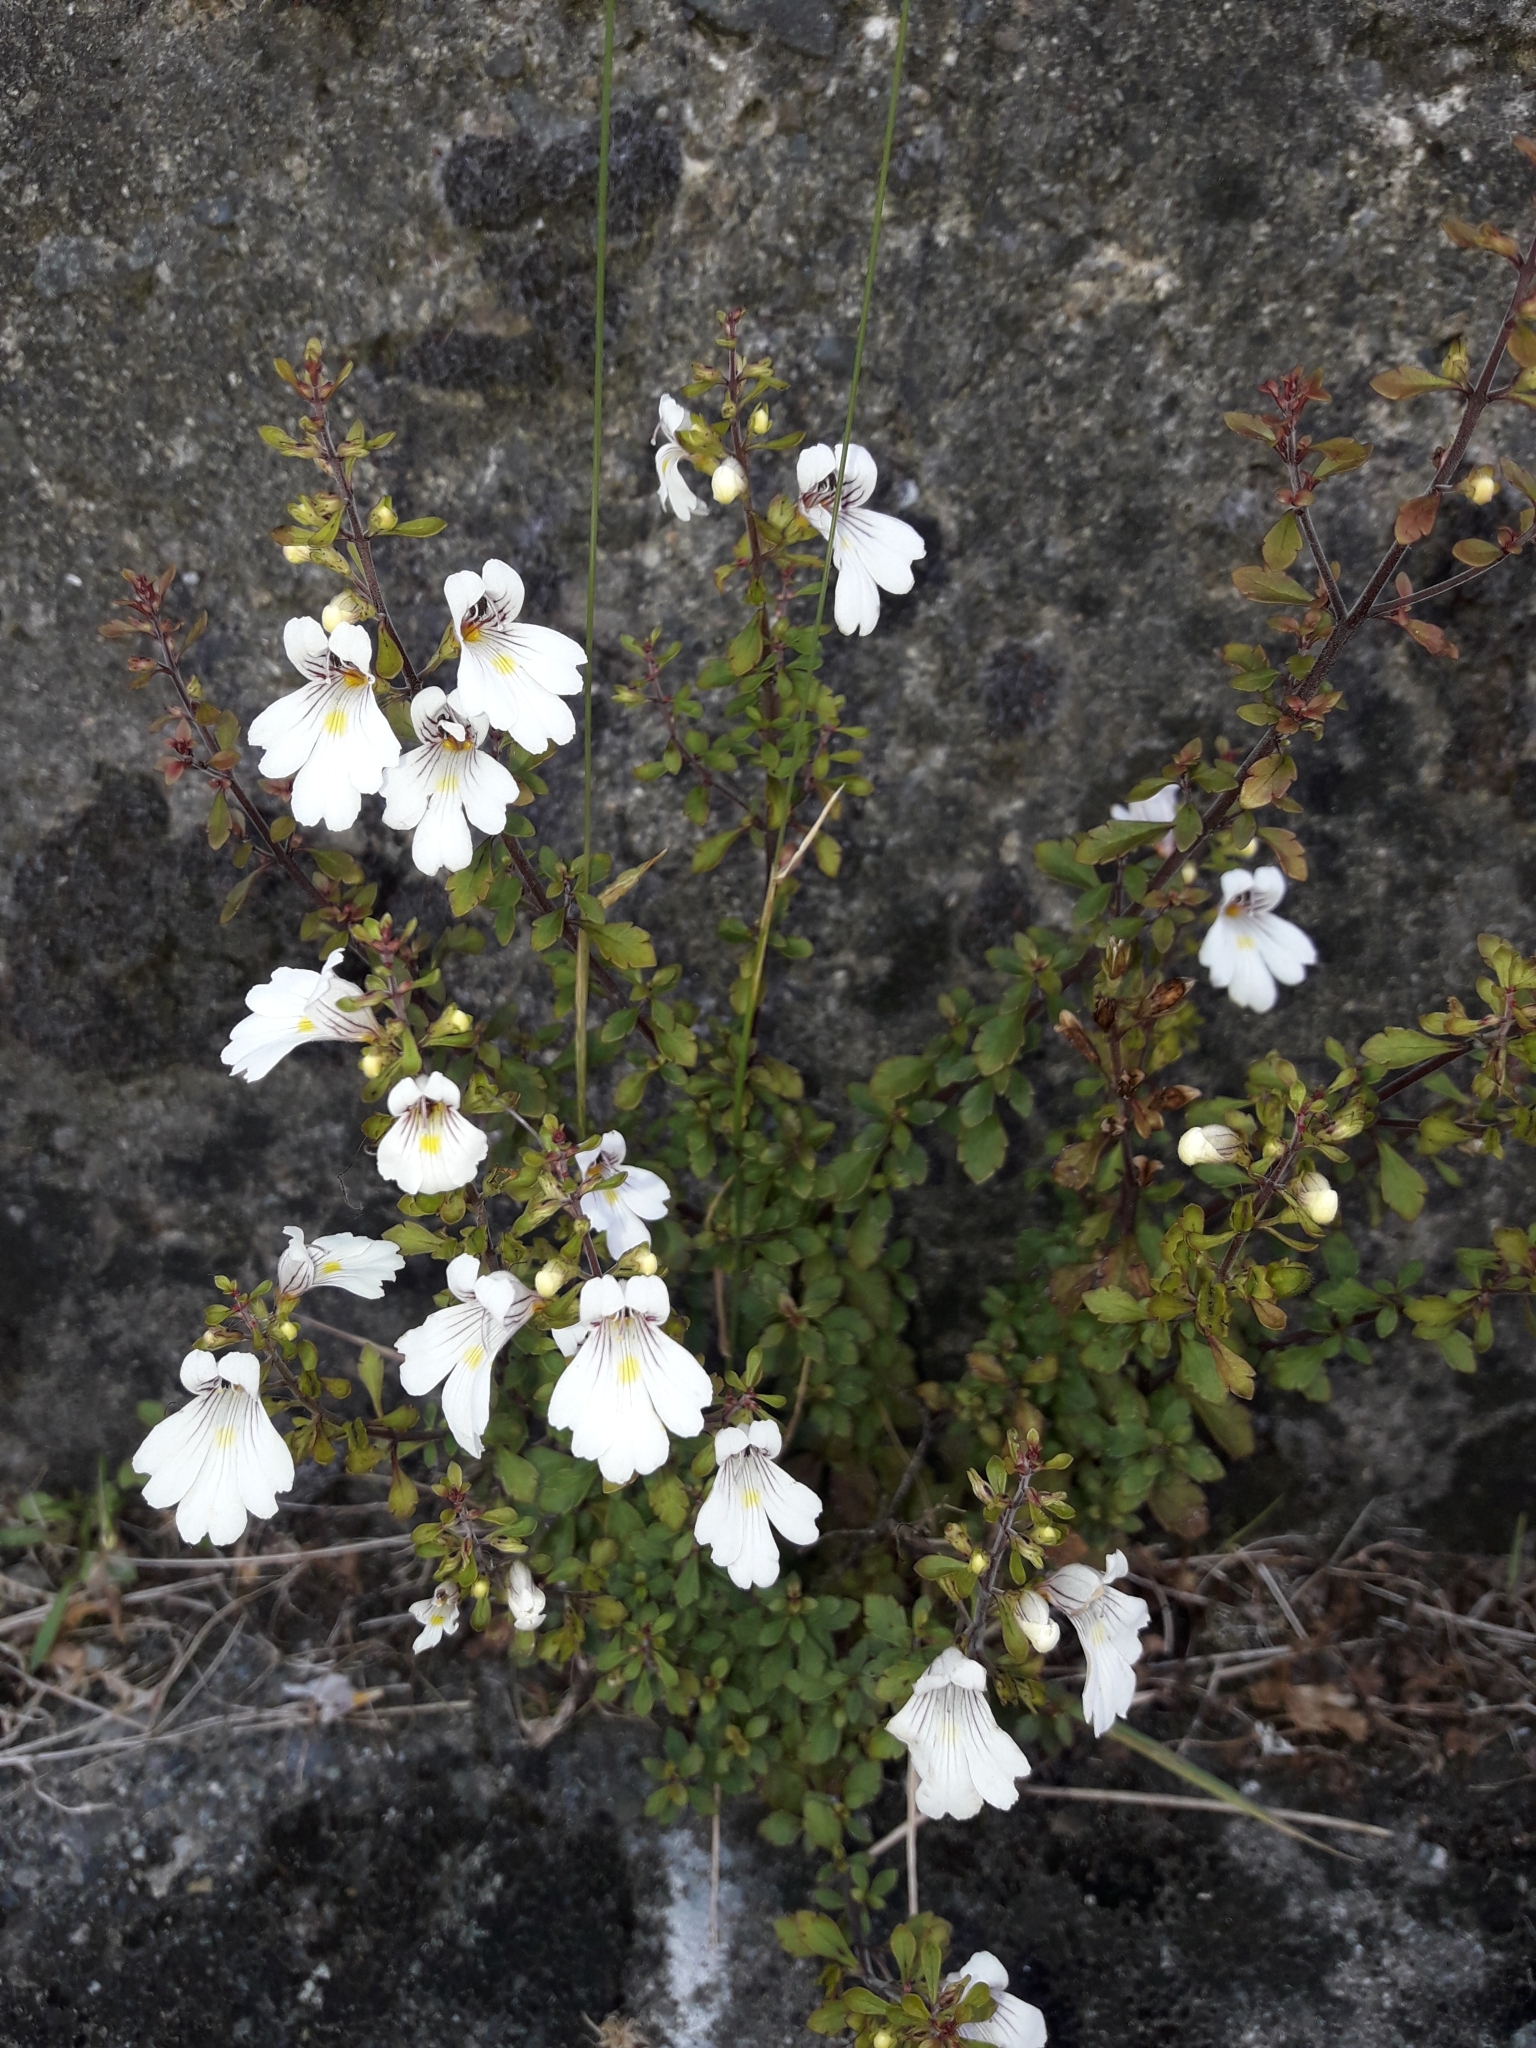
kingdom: Plantae
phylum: Tracheophyta
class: Magnoliopsida
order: Lamiales
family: Orobanchaceae
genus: Euphrasia
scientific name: Euphrasia cuneata
